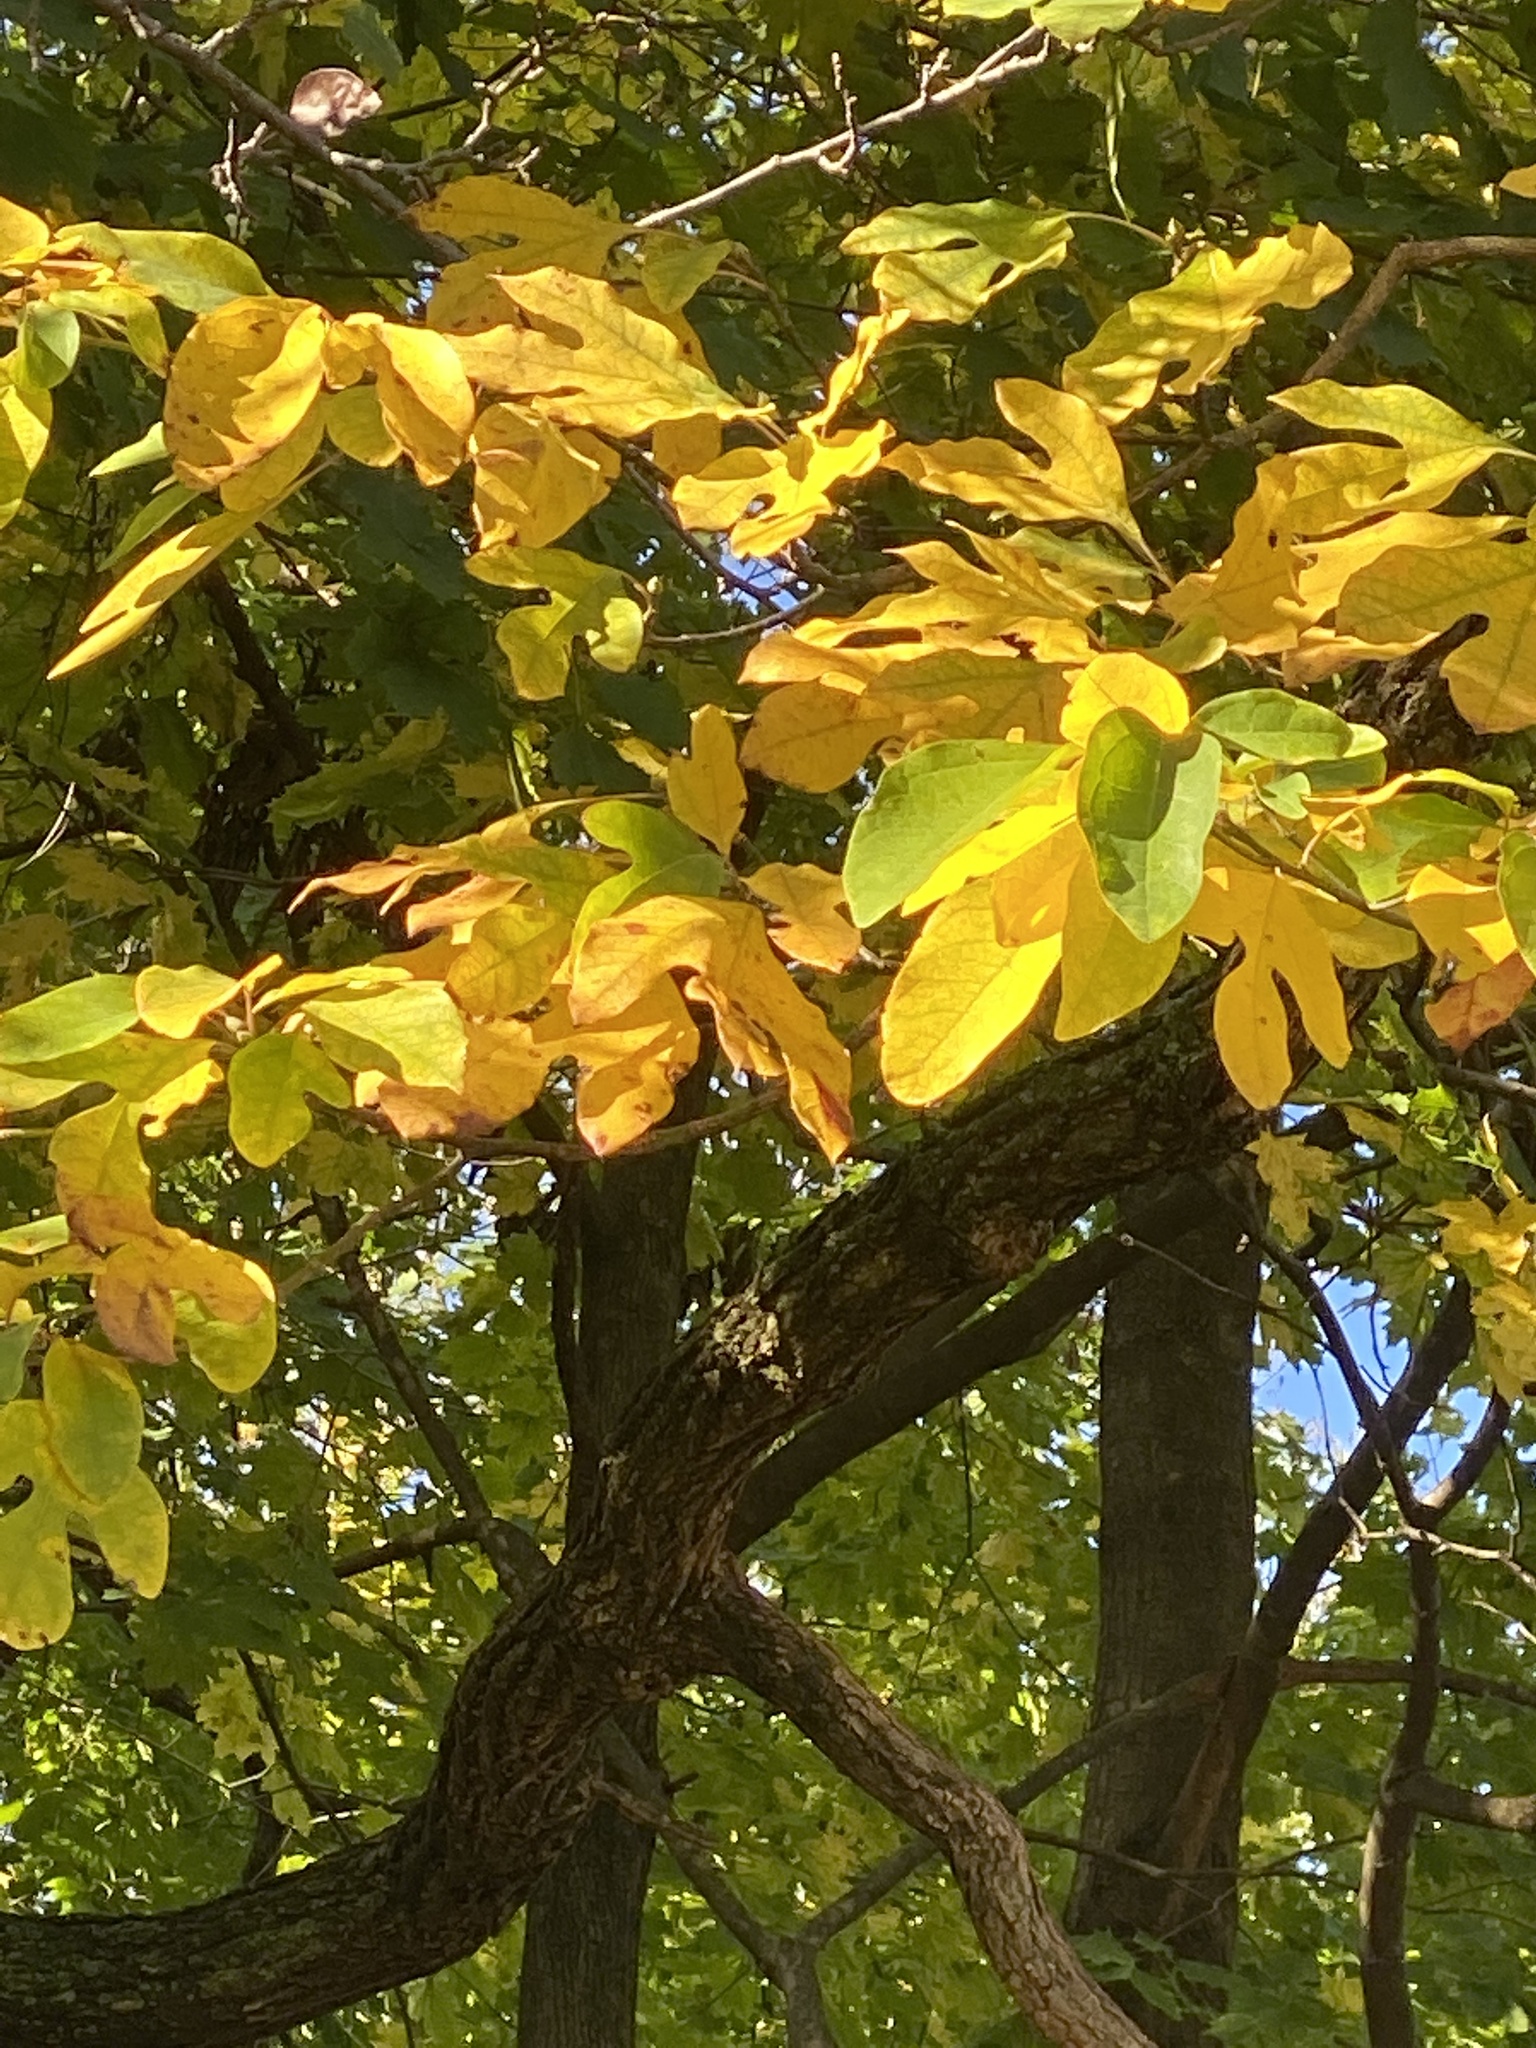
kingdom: Plantae
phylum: Tracheophyta
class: Magnoliopsida
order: Laurales
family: Lauraceae
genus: Sassafras
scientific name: Sassafras albidum
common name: Sassafras
